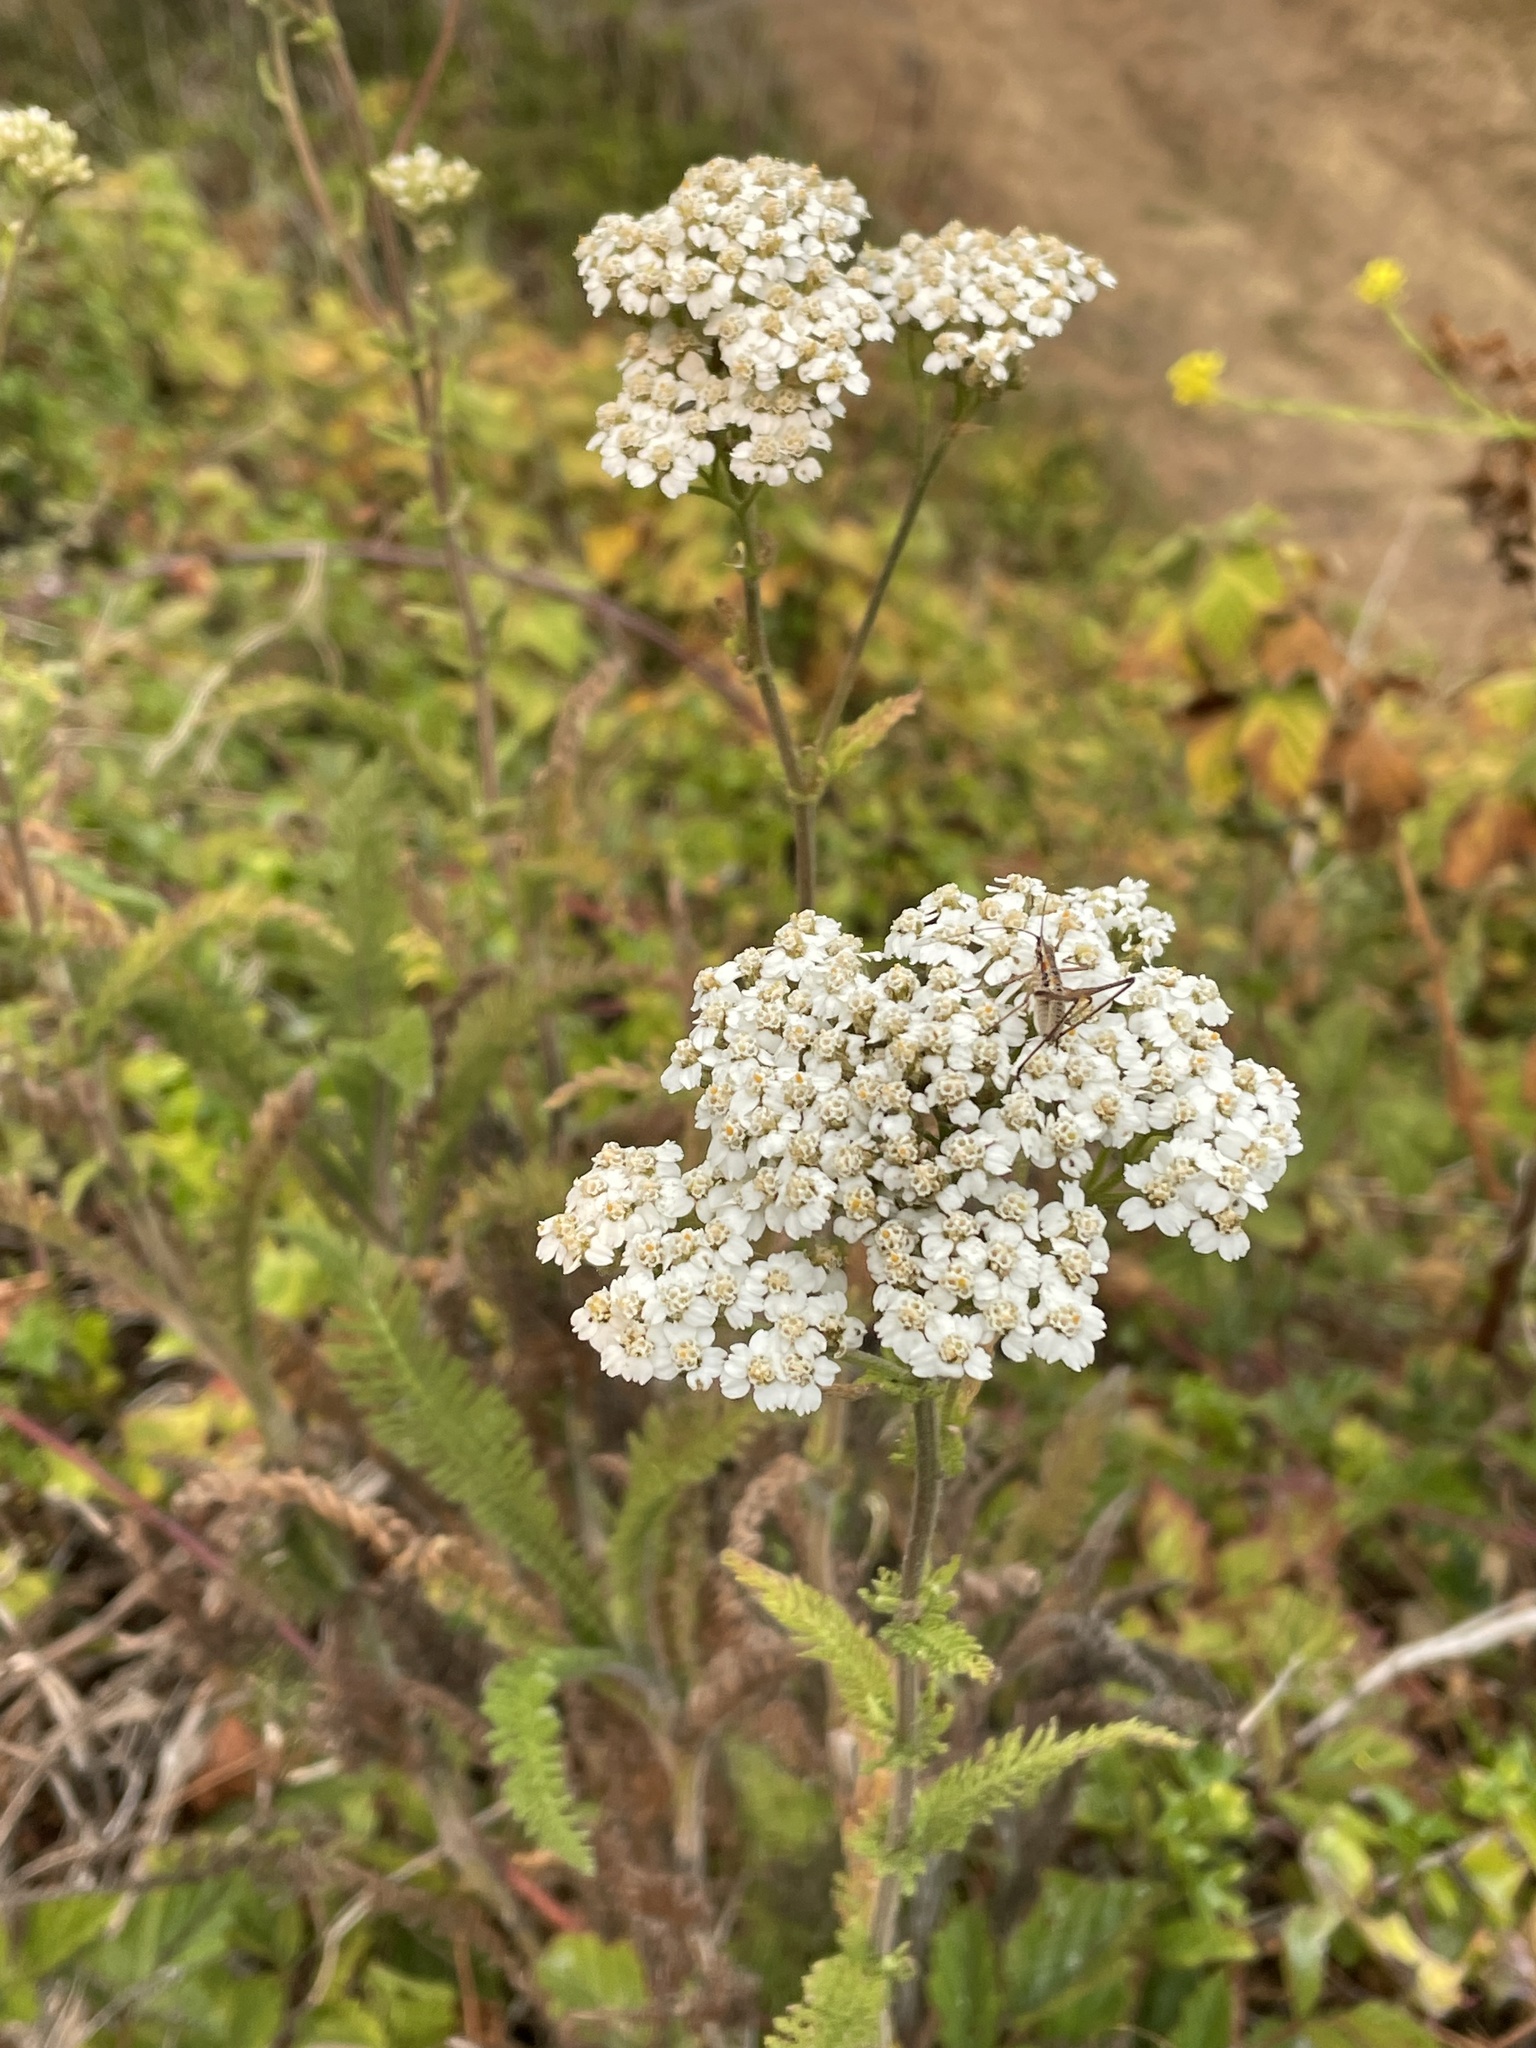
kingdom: Plantae
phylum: Tracheophyta
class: Magnoliopsida
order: Asterales
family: Asteraceae
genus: Achillea
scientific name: Achillea millefolium
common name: Yarrow
